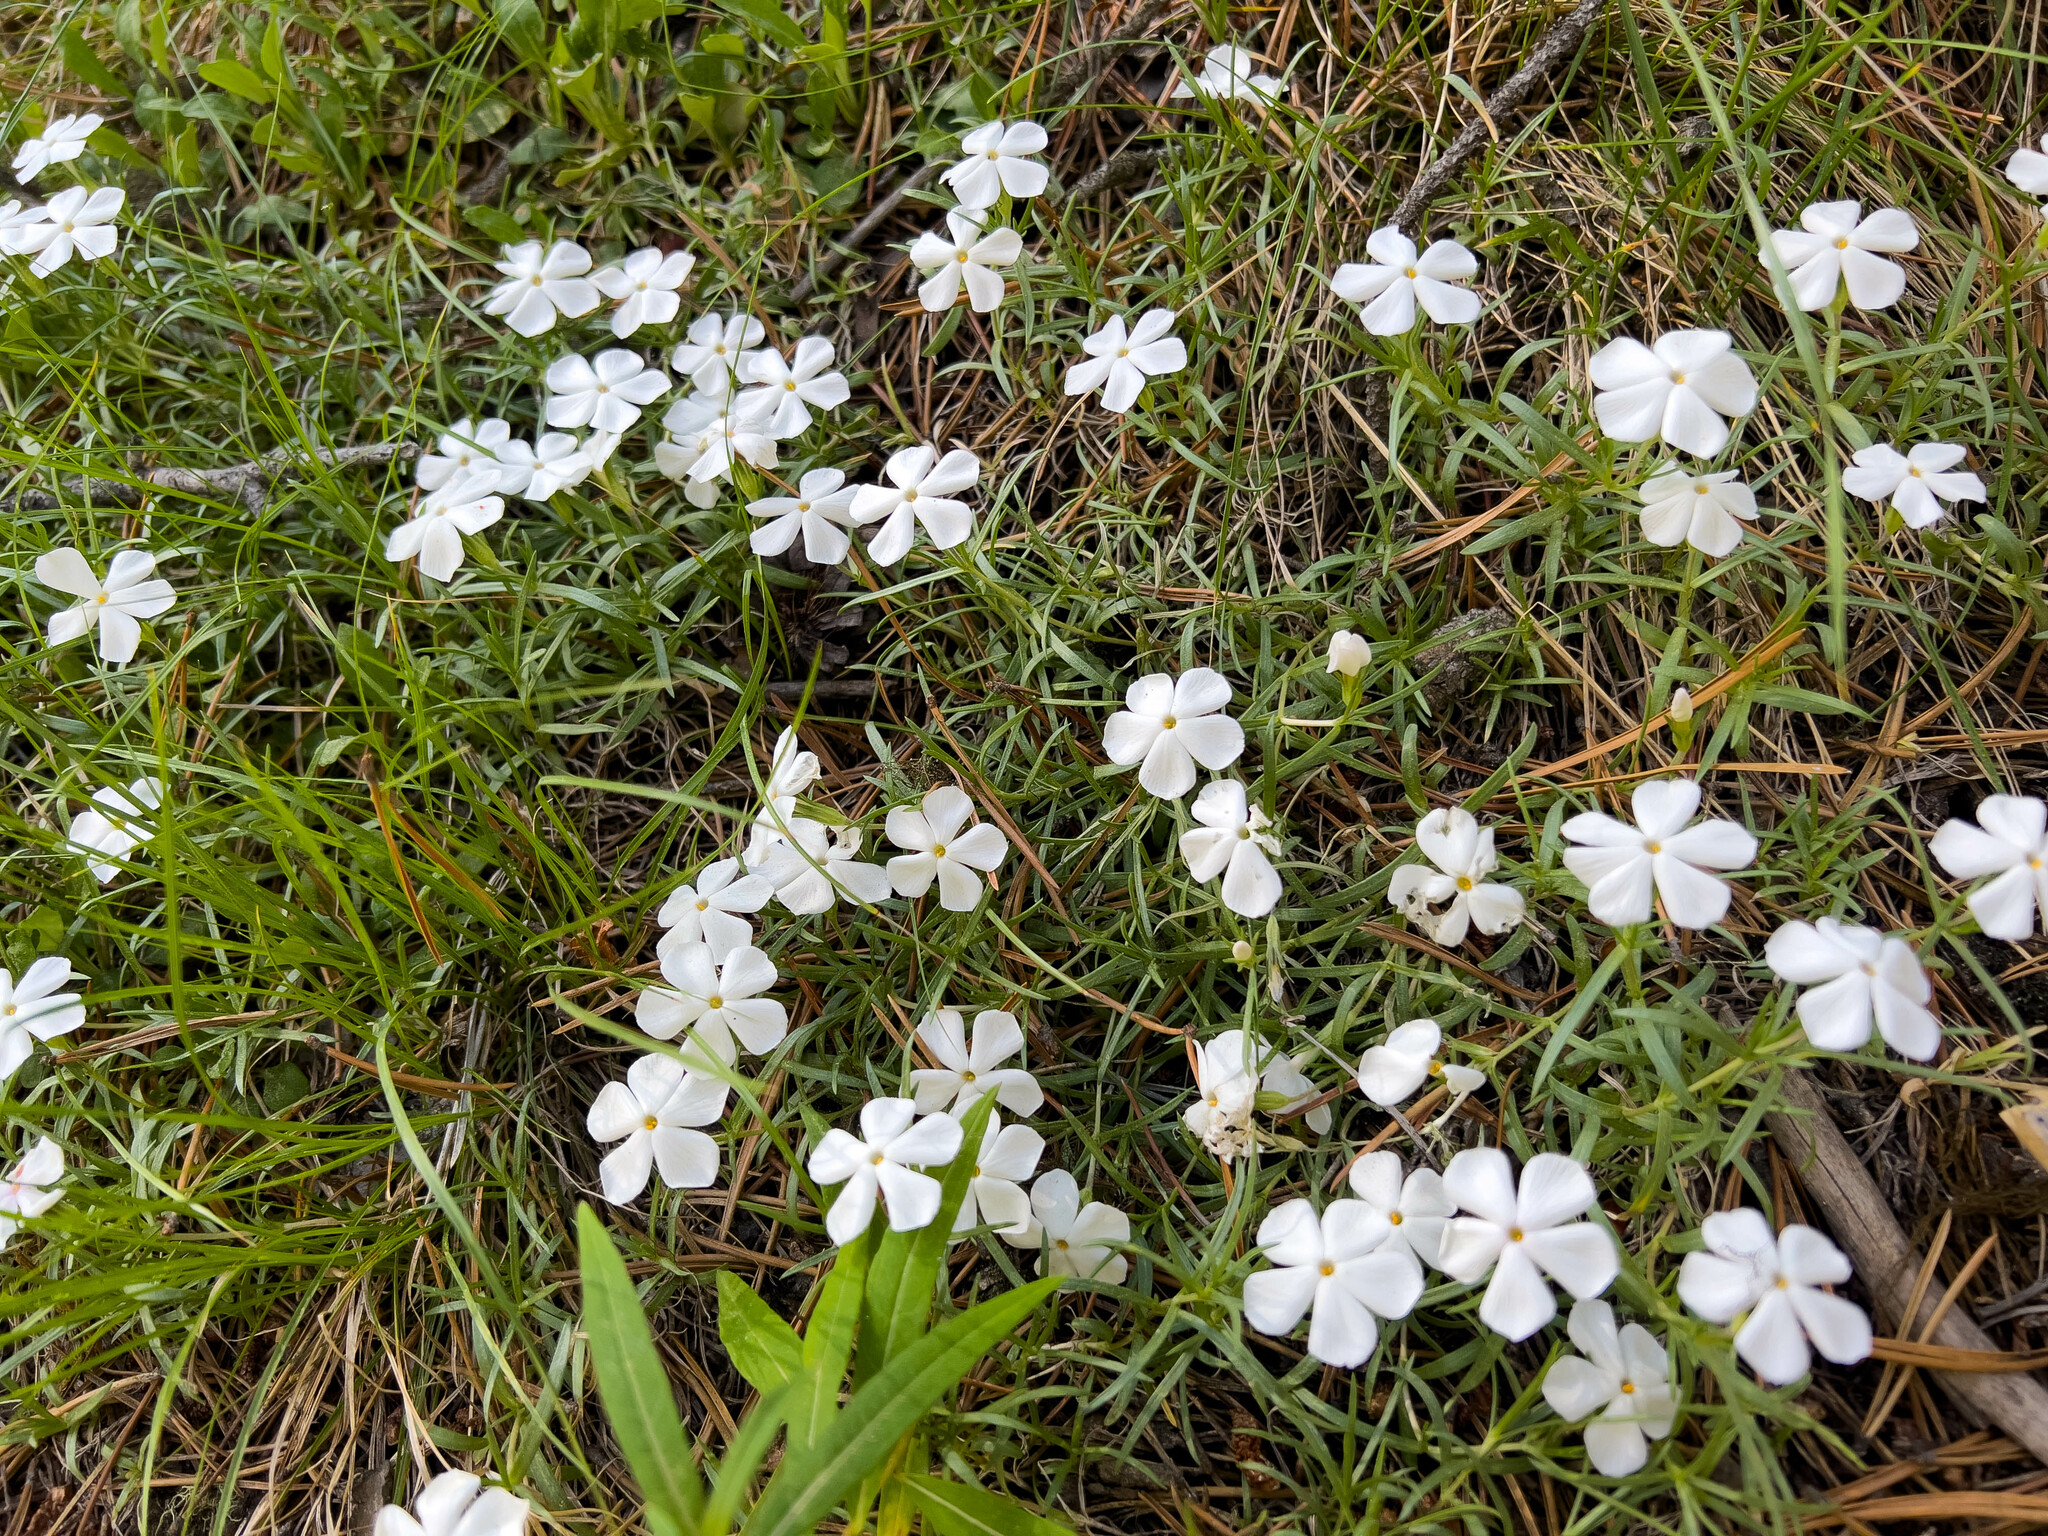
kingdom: Plantae
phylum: Tracheophyta
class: Magnoliopsida
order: Ericales
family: Polemoniaceae
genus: Phlox
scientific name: Phlox multiflora
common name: Rocky mountain phlox
